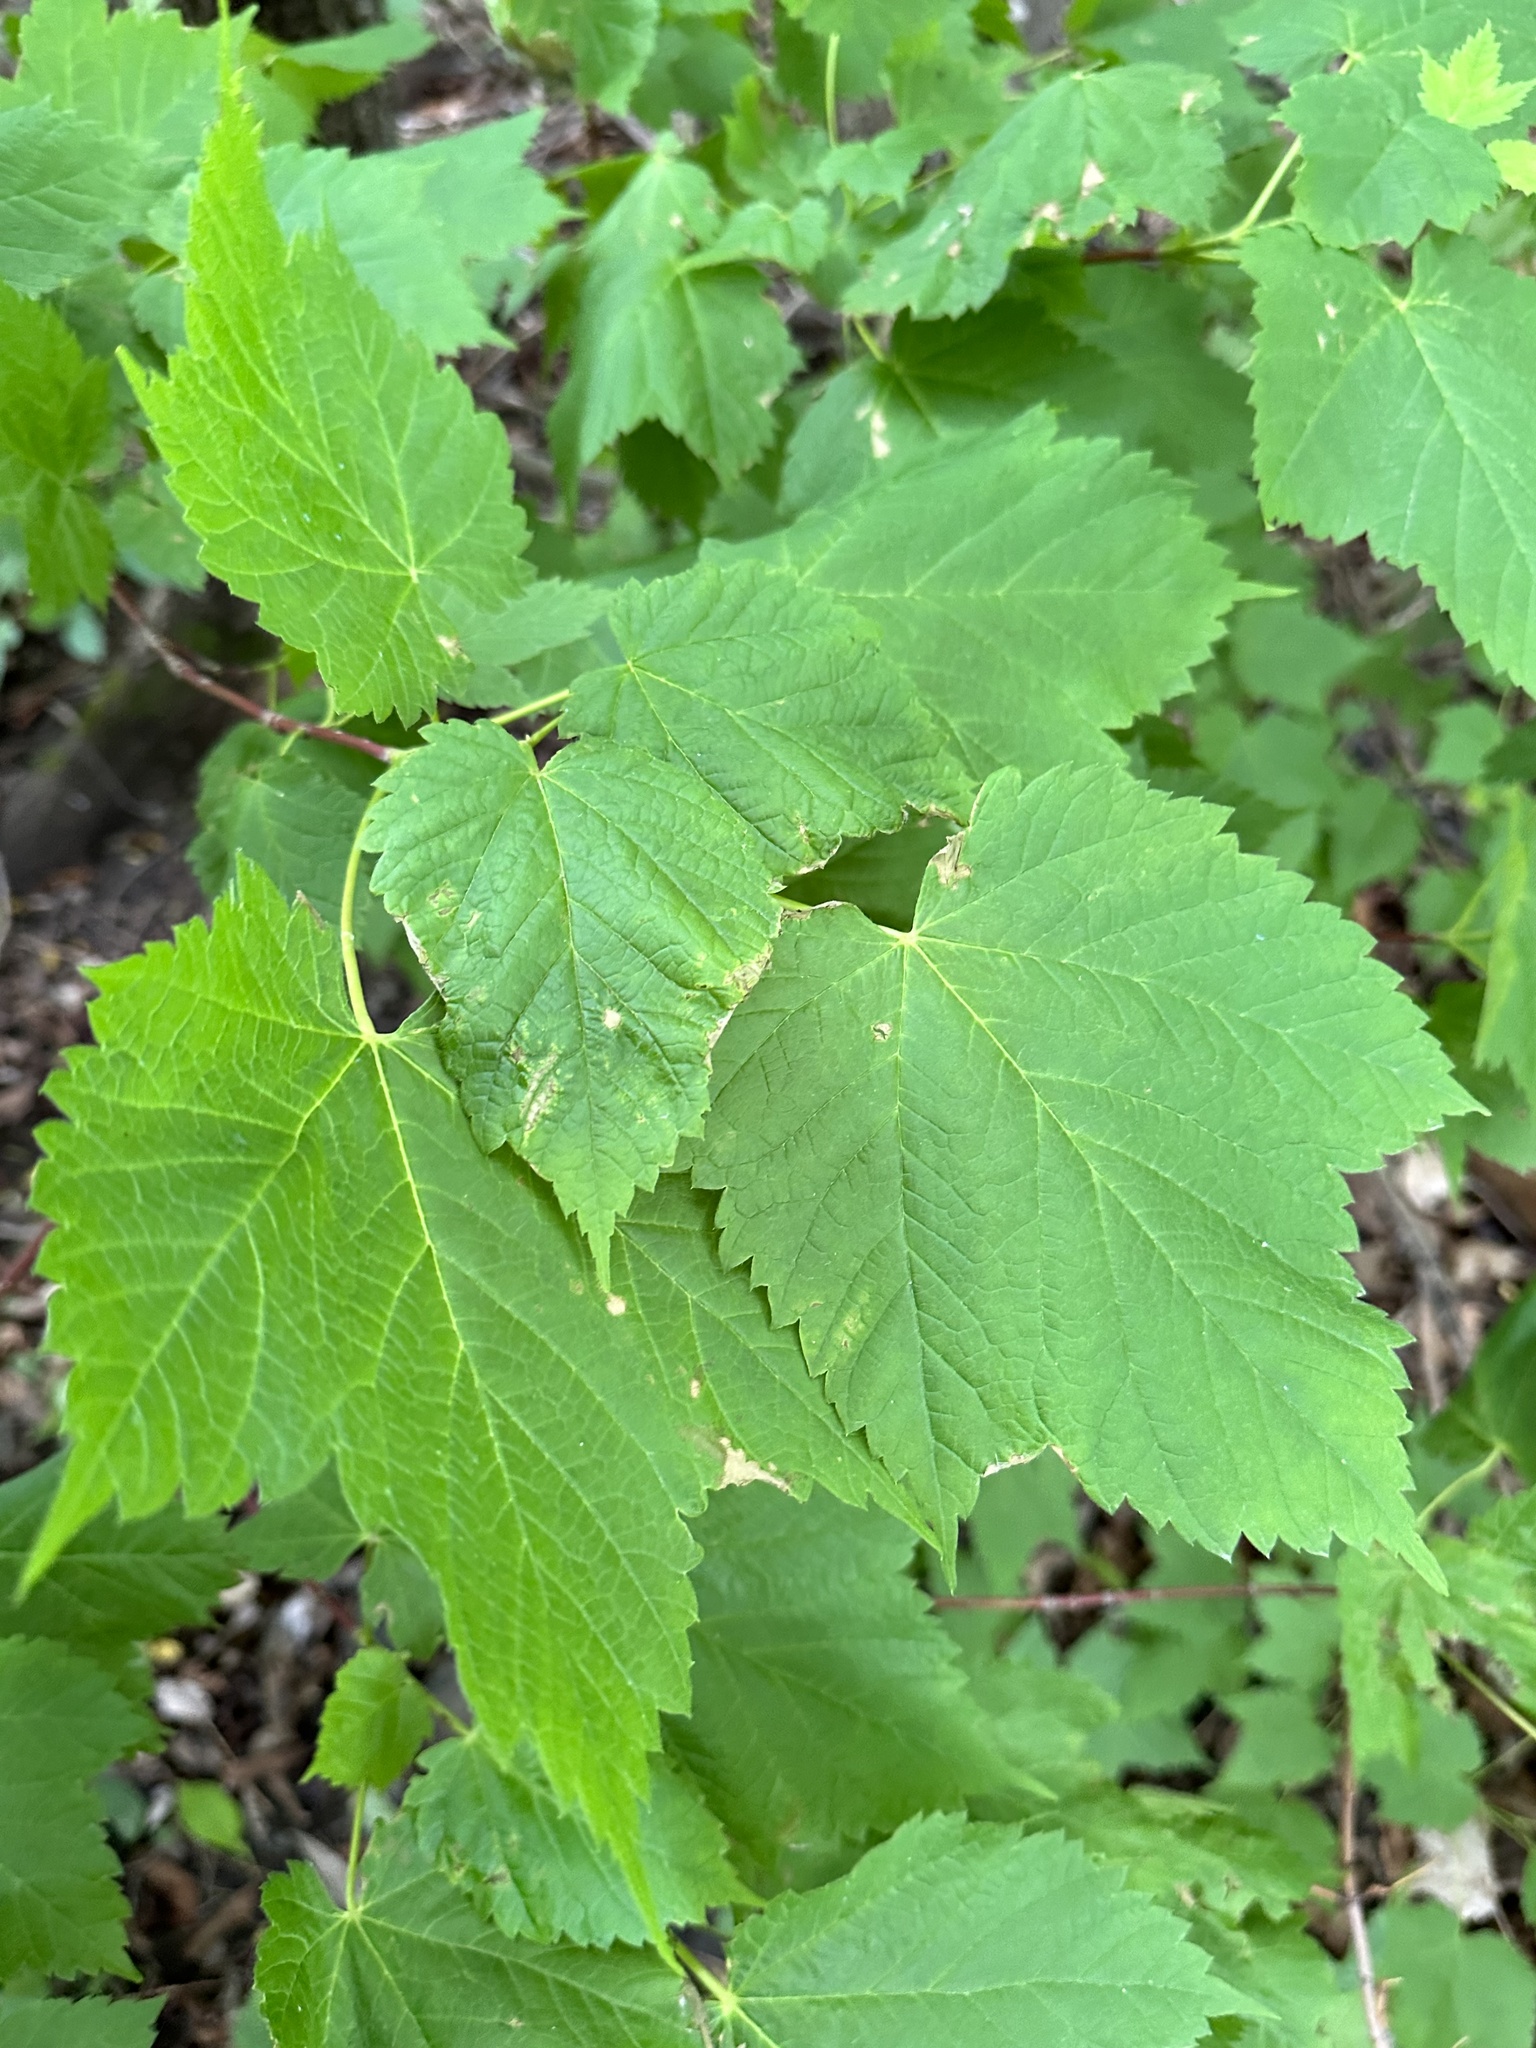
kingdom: Plantae
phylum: Tracheophyta
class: Magnoliopsida
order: Sapindales
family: Sapindaceae
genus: Acer
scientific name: Acer spicatum
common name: Mountain maple
